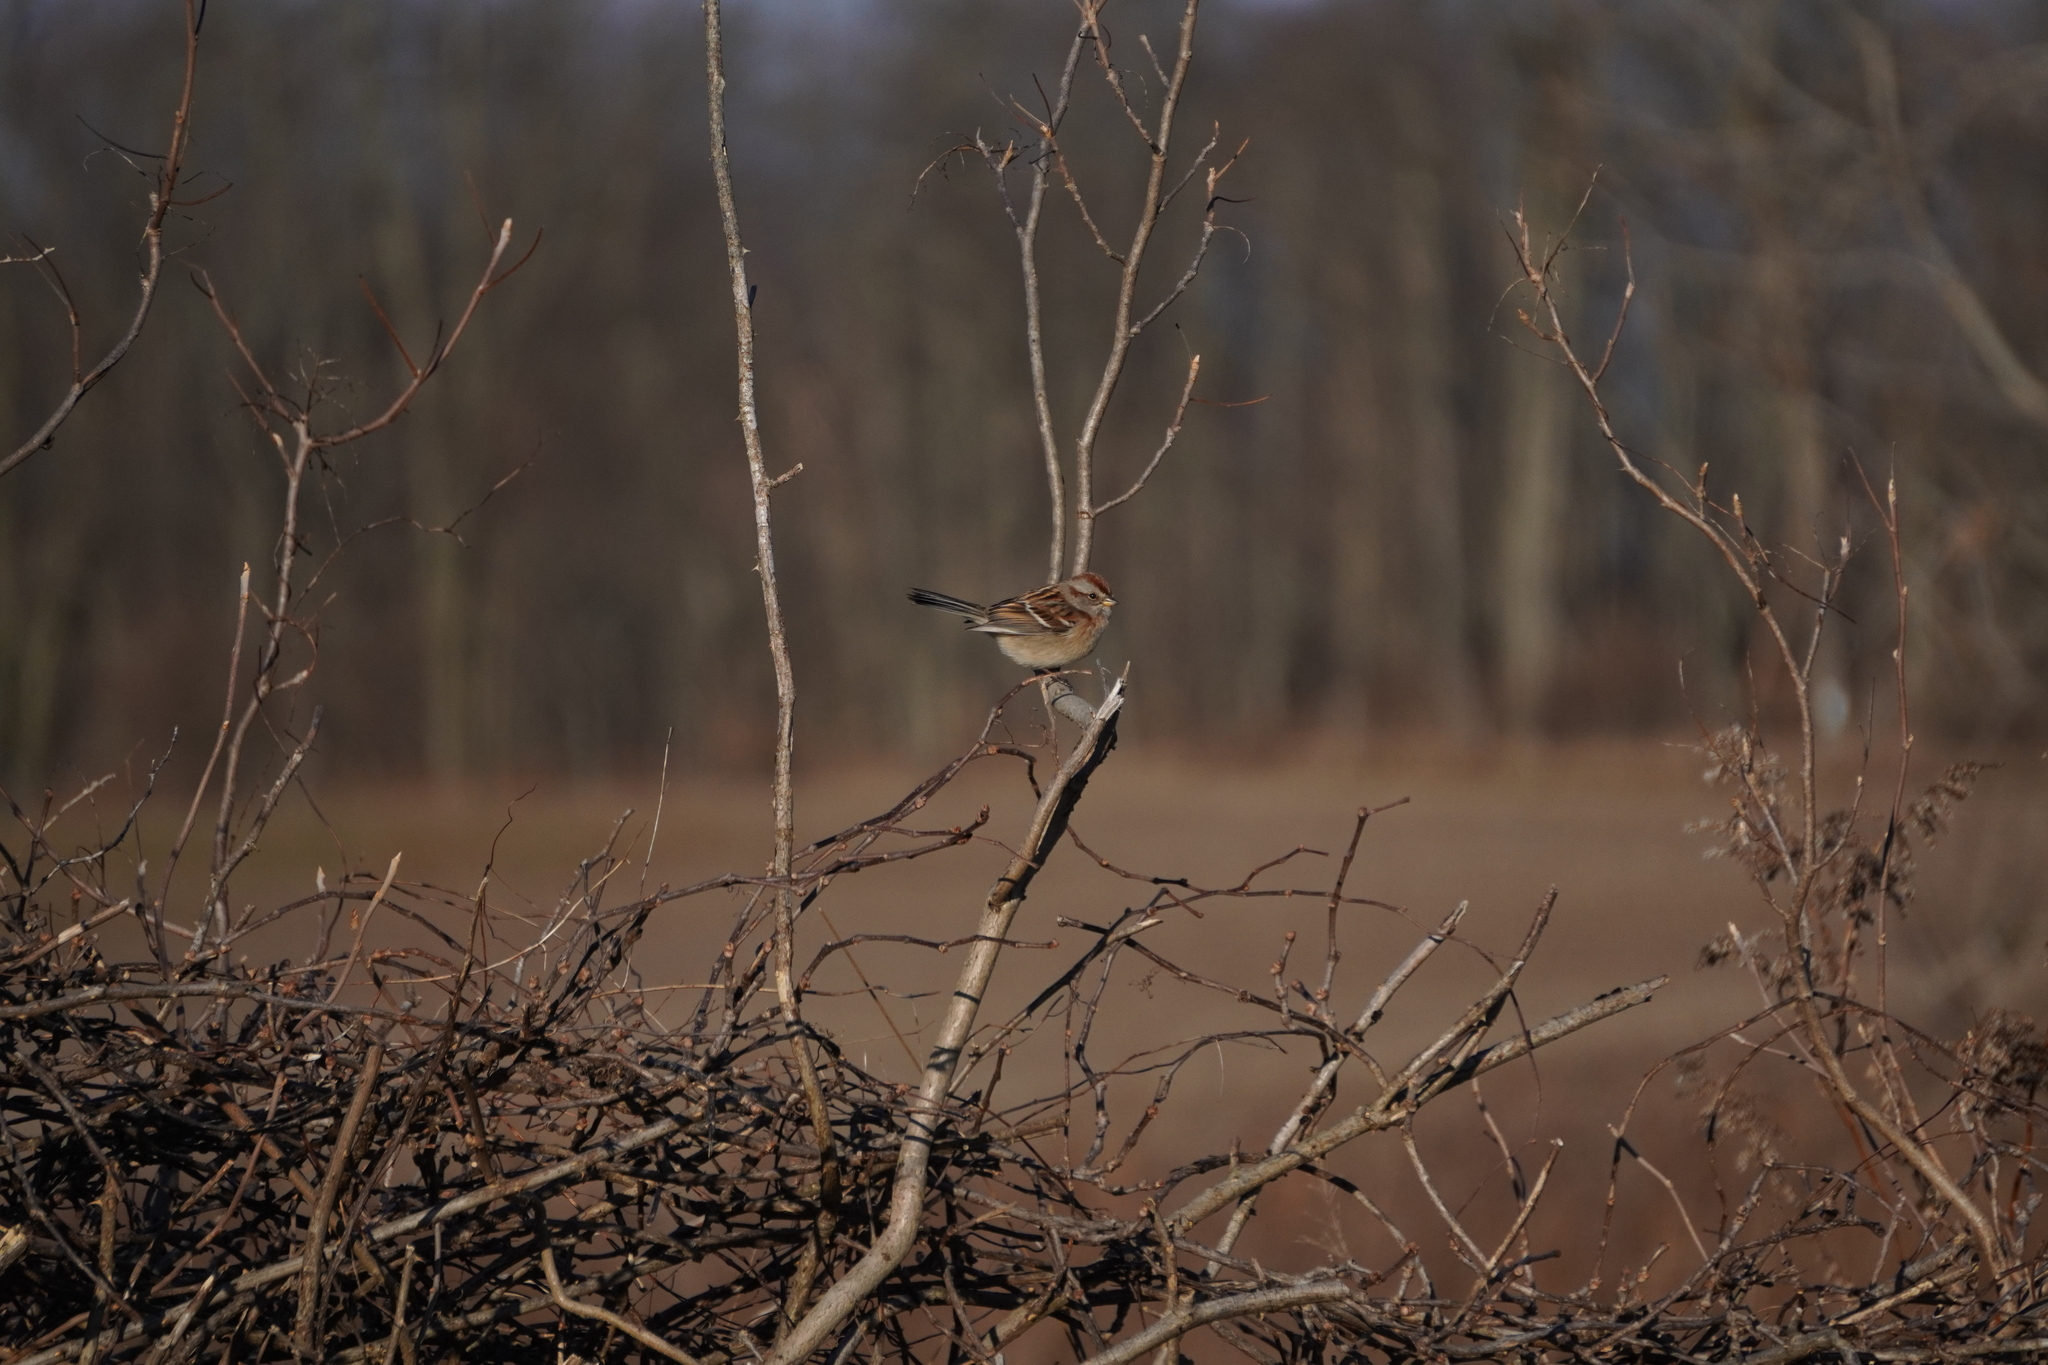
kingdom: Animalia
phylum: Chordata
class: Aves
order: Passeriformes
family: Passerellidae
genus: Spizelloides
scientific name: Spizelloides arborea
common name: American tree sparrow
